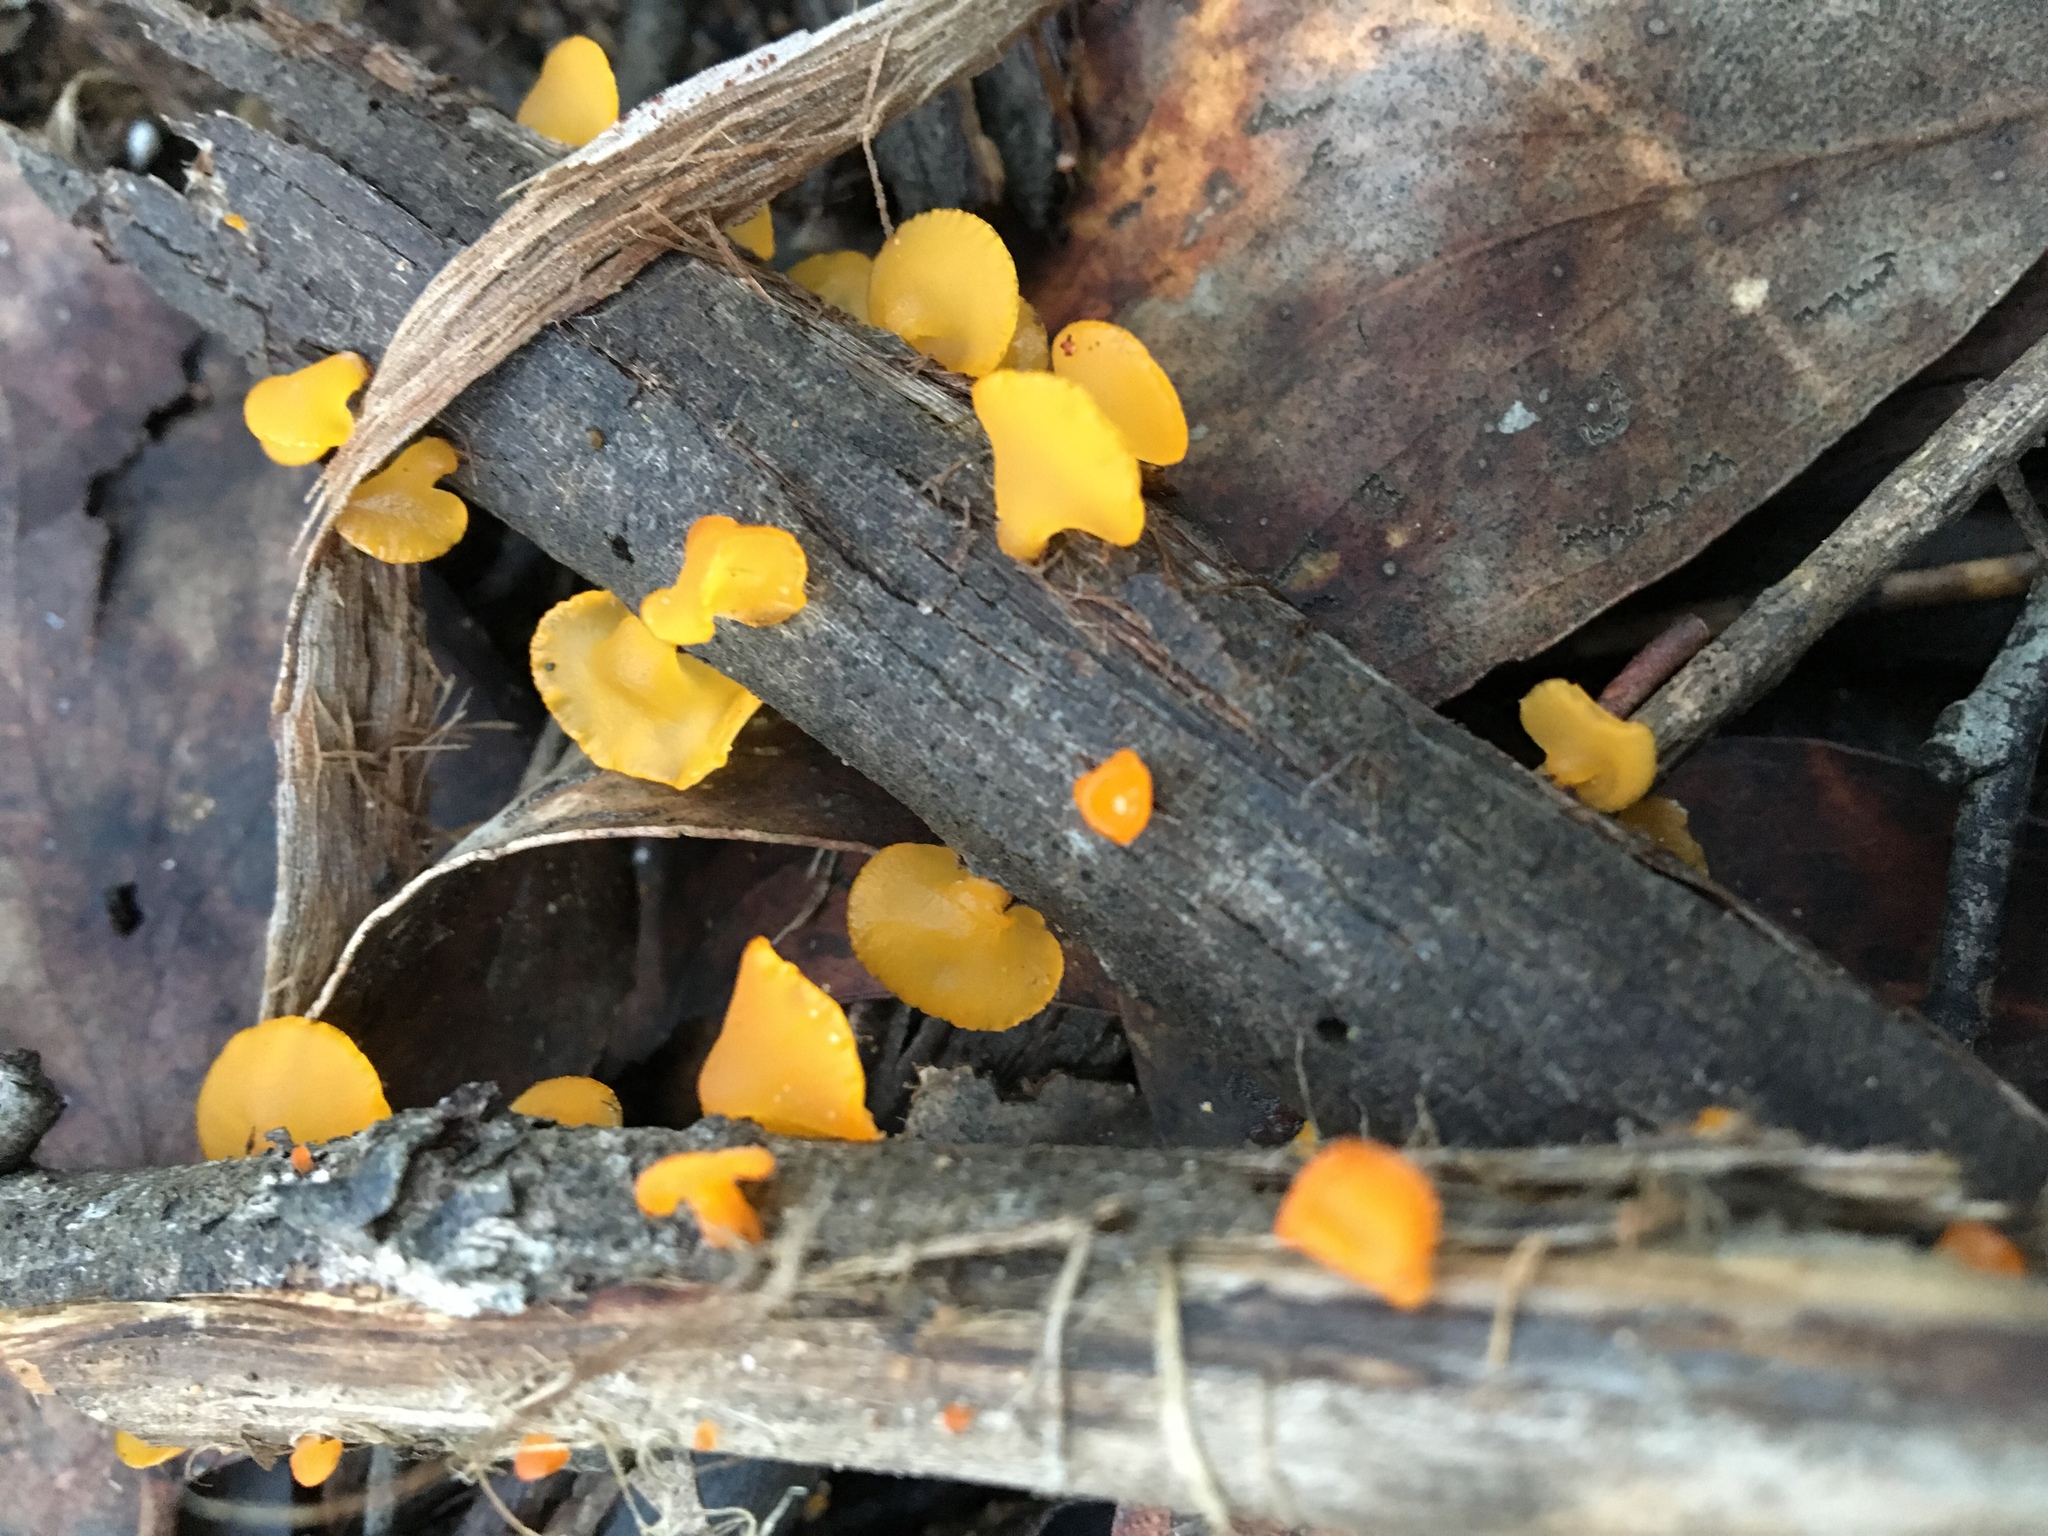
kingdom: Fungi
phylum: Basidiomycota
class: Dacrymycetes
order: Dacrymycetales
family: Dacrymycetaceae
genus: Heterotextus
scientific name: Heterotextus peziziformis
